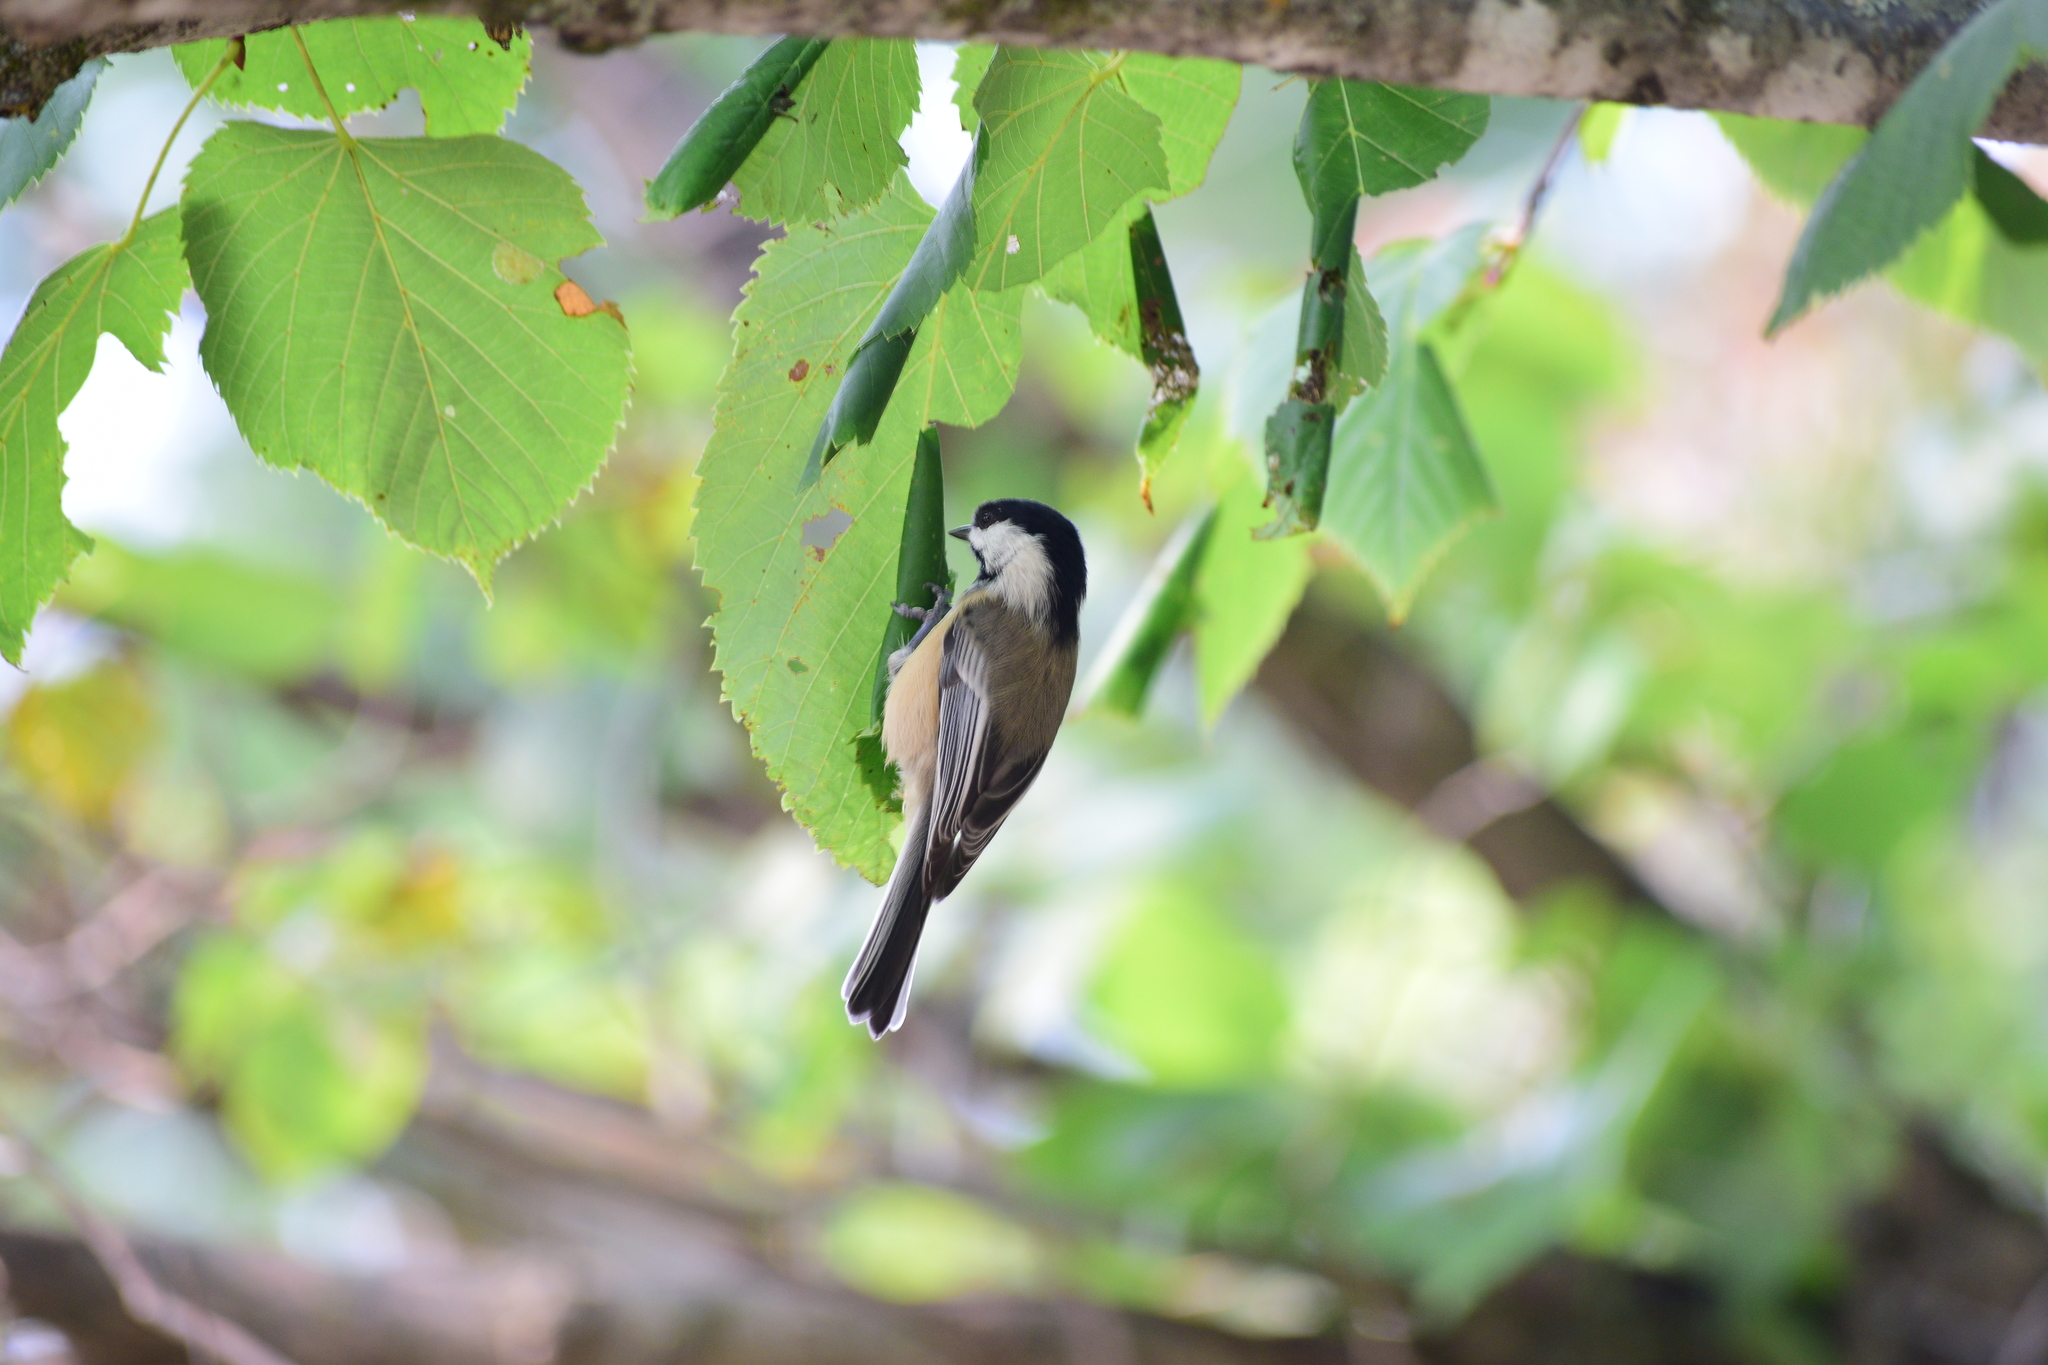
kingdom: Animalia
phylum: Chordata
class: Aves
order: Passeriformes
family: Paridae
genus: Poecile
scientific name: Poecile atricapillus
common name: Black-capped chickadee
